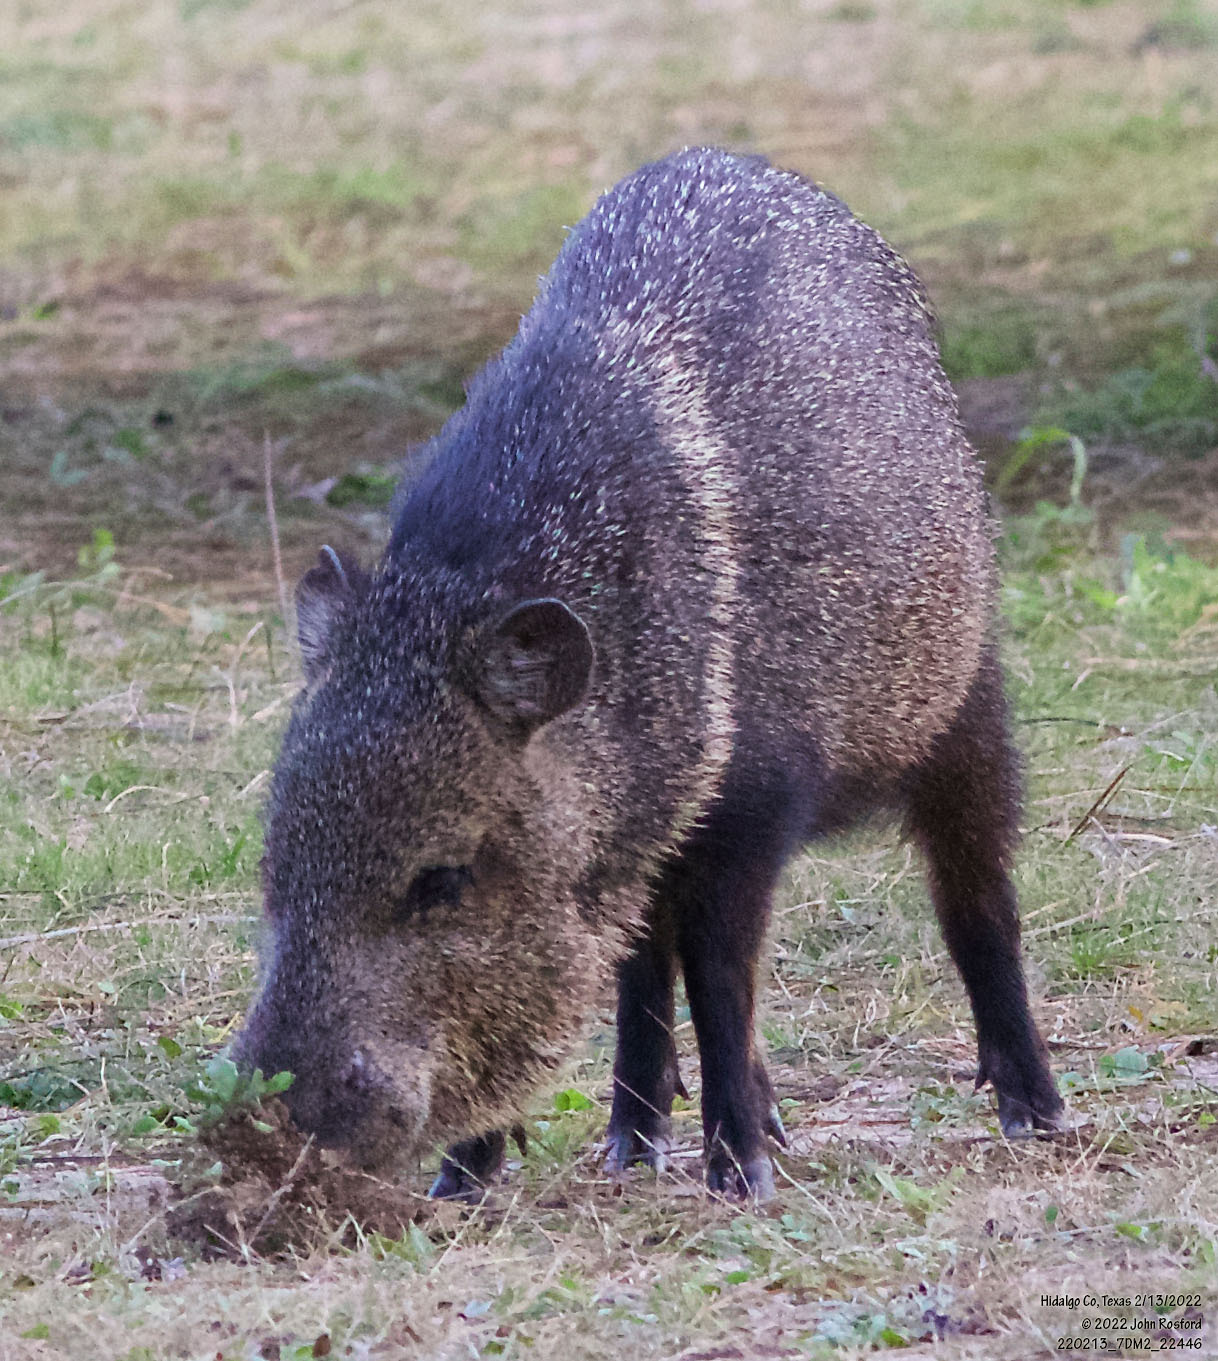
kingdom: Animalia
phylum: Chordata
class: Mammalia
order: Artiodactyla
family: Tayassuidae
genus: Pecari
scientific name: Pecari tajacu
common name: Collared peccary
